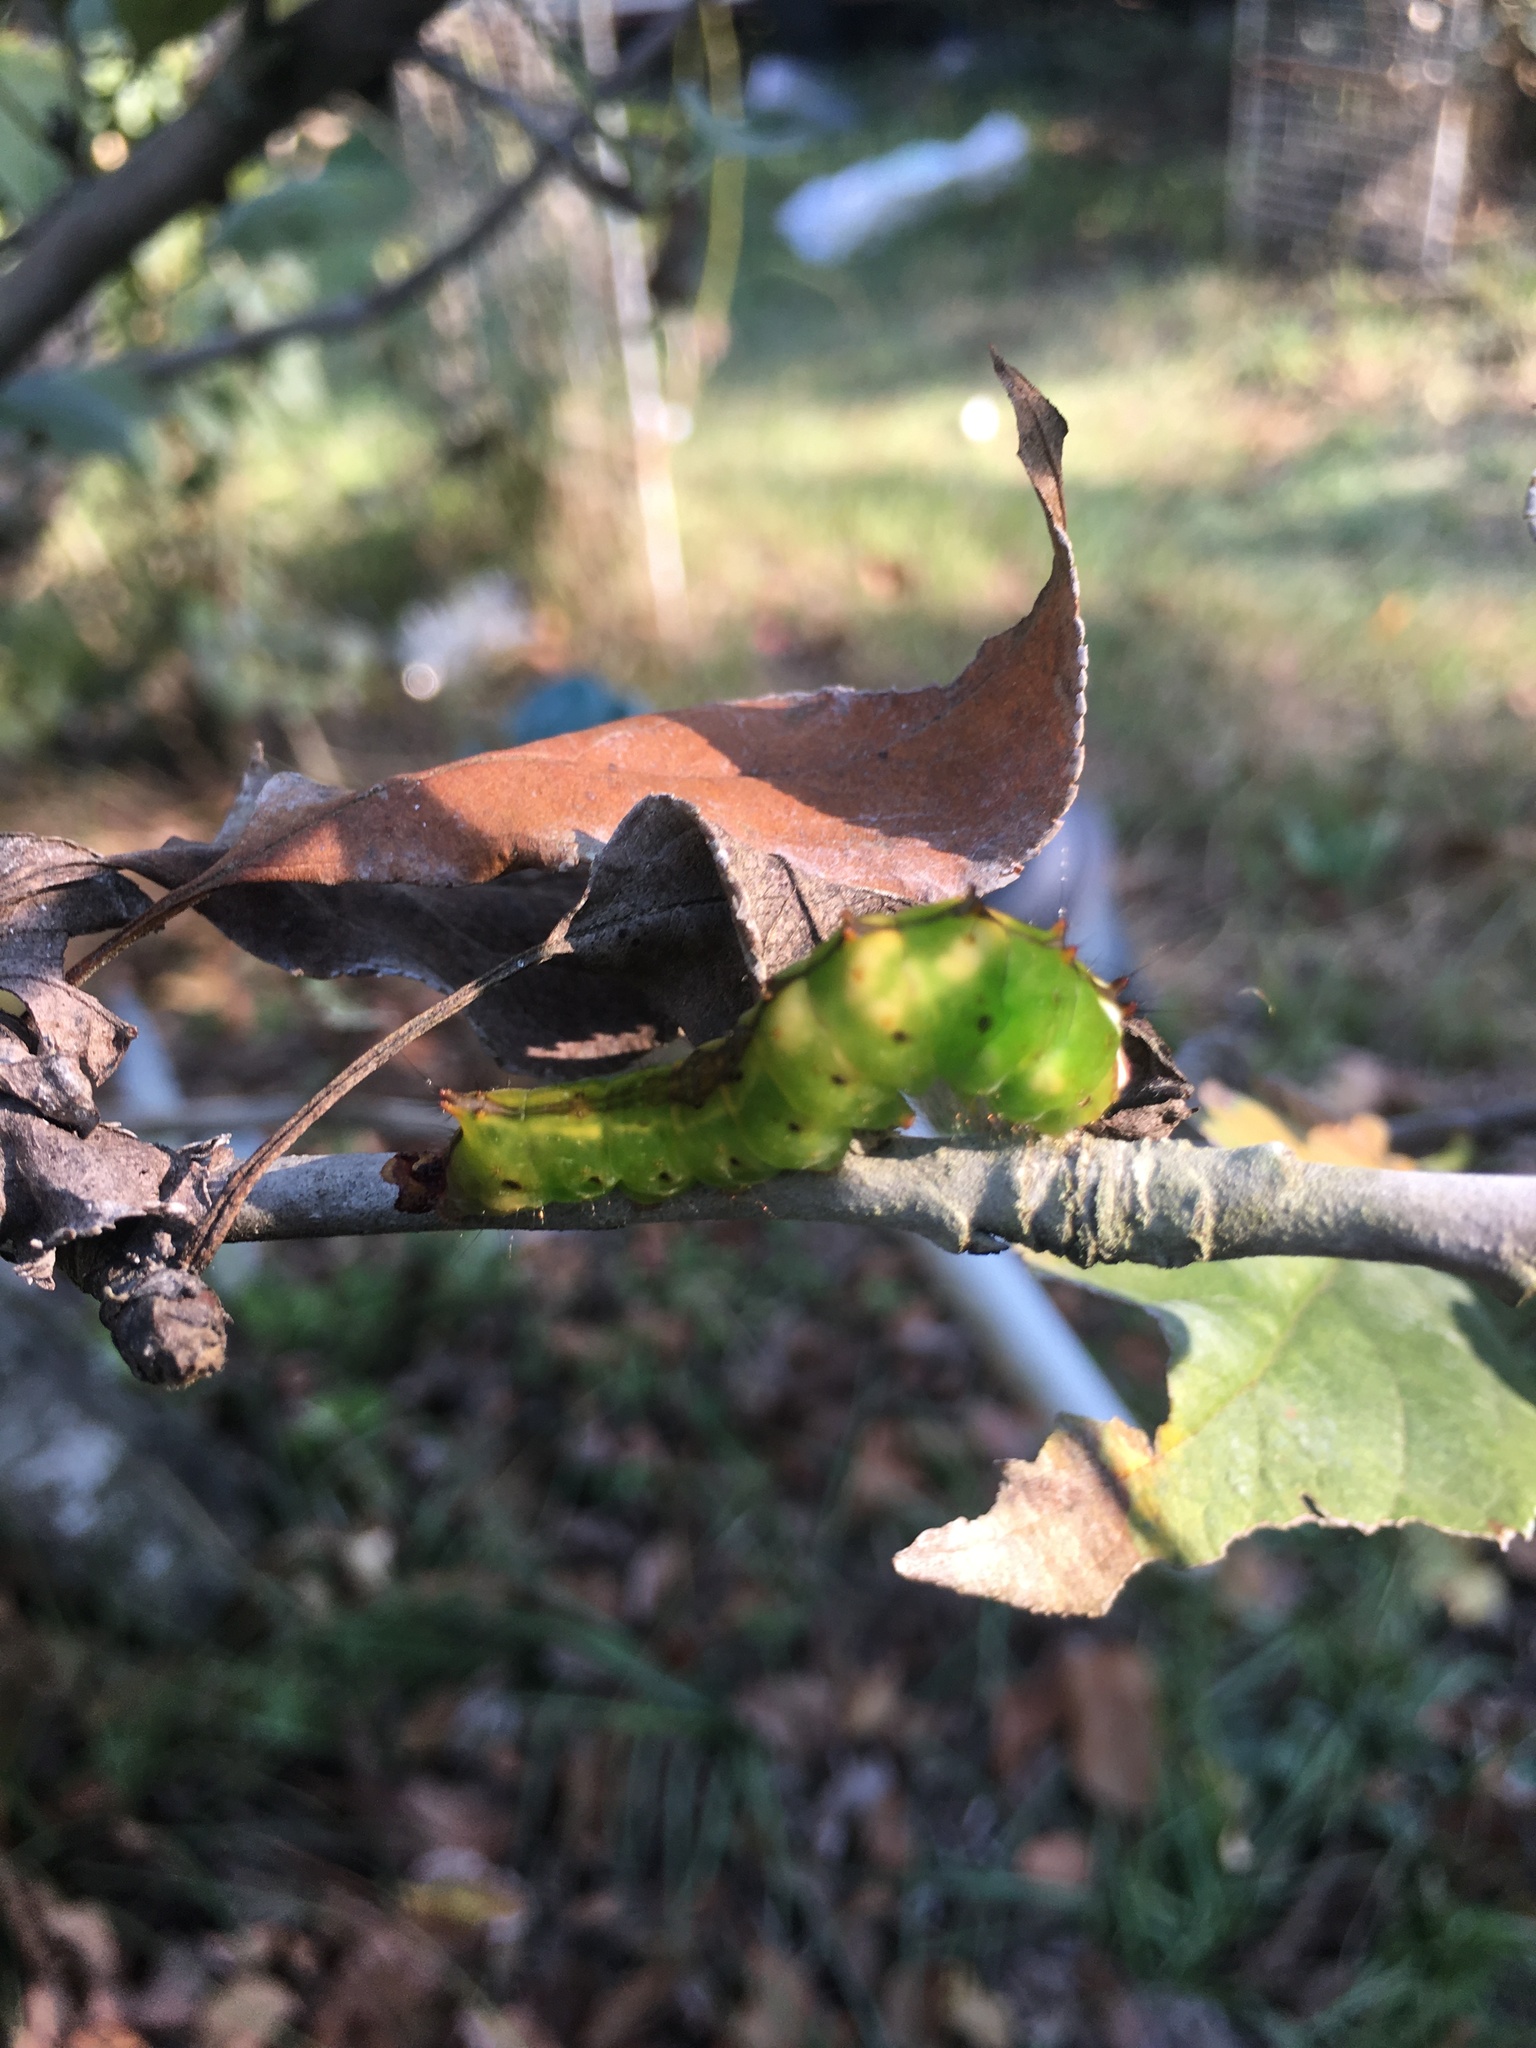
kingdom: Animalia
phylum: Arthropoda
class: Insecta
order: Lepidoptera
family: Noctuidae
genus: Acronicta
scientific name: Acronicta clarescens
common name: Clear dagger
